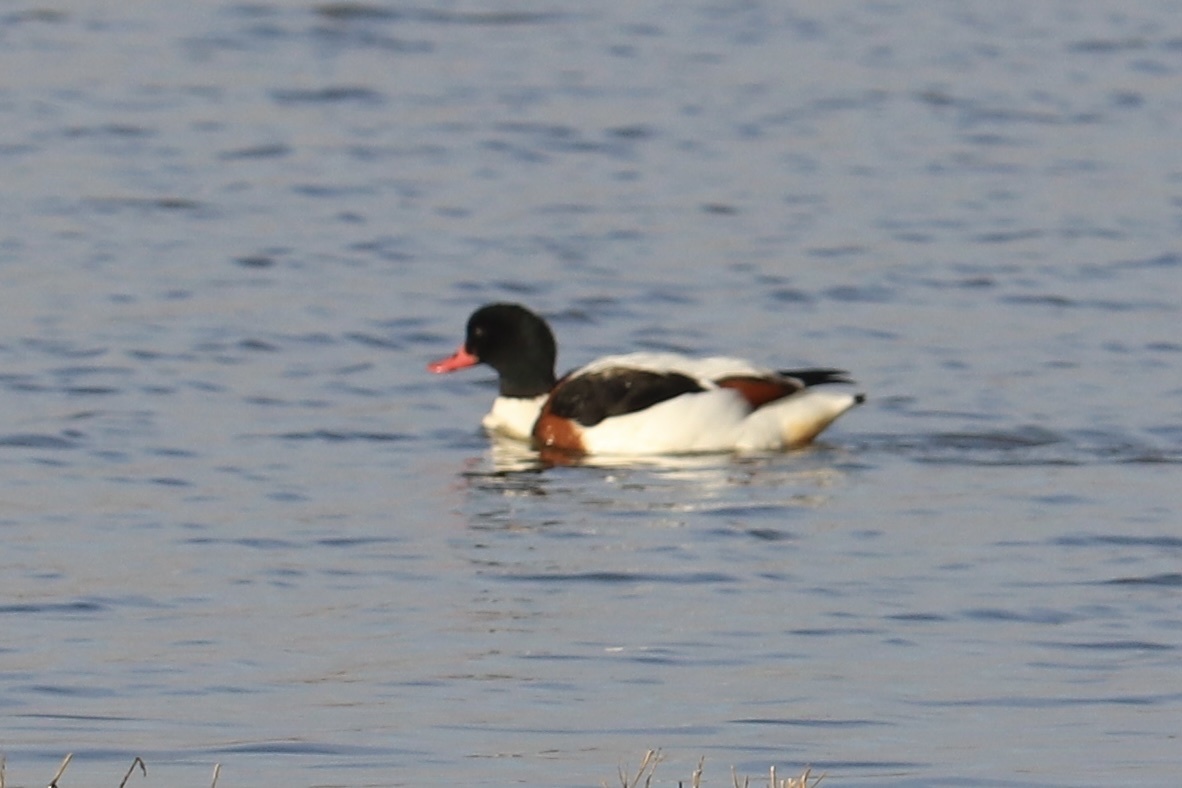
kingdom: Animalia
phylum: Chordata
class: Aves
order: Anseriformes
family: Anatidae
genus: Tadorna
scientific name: Tadorna tadorna
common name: Common shelduck
